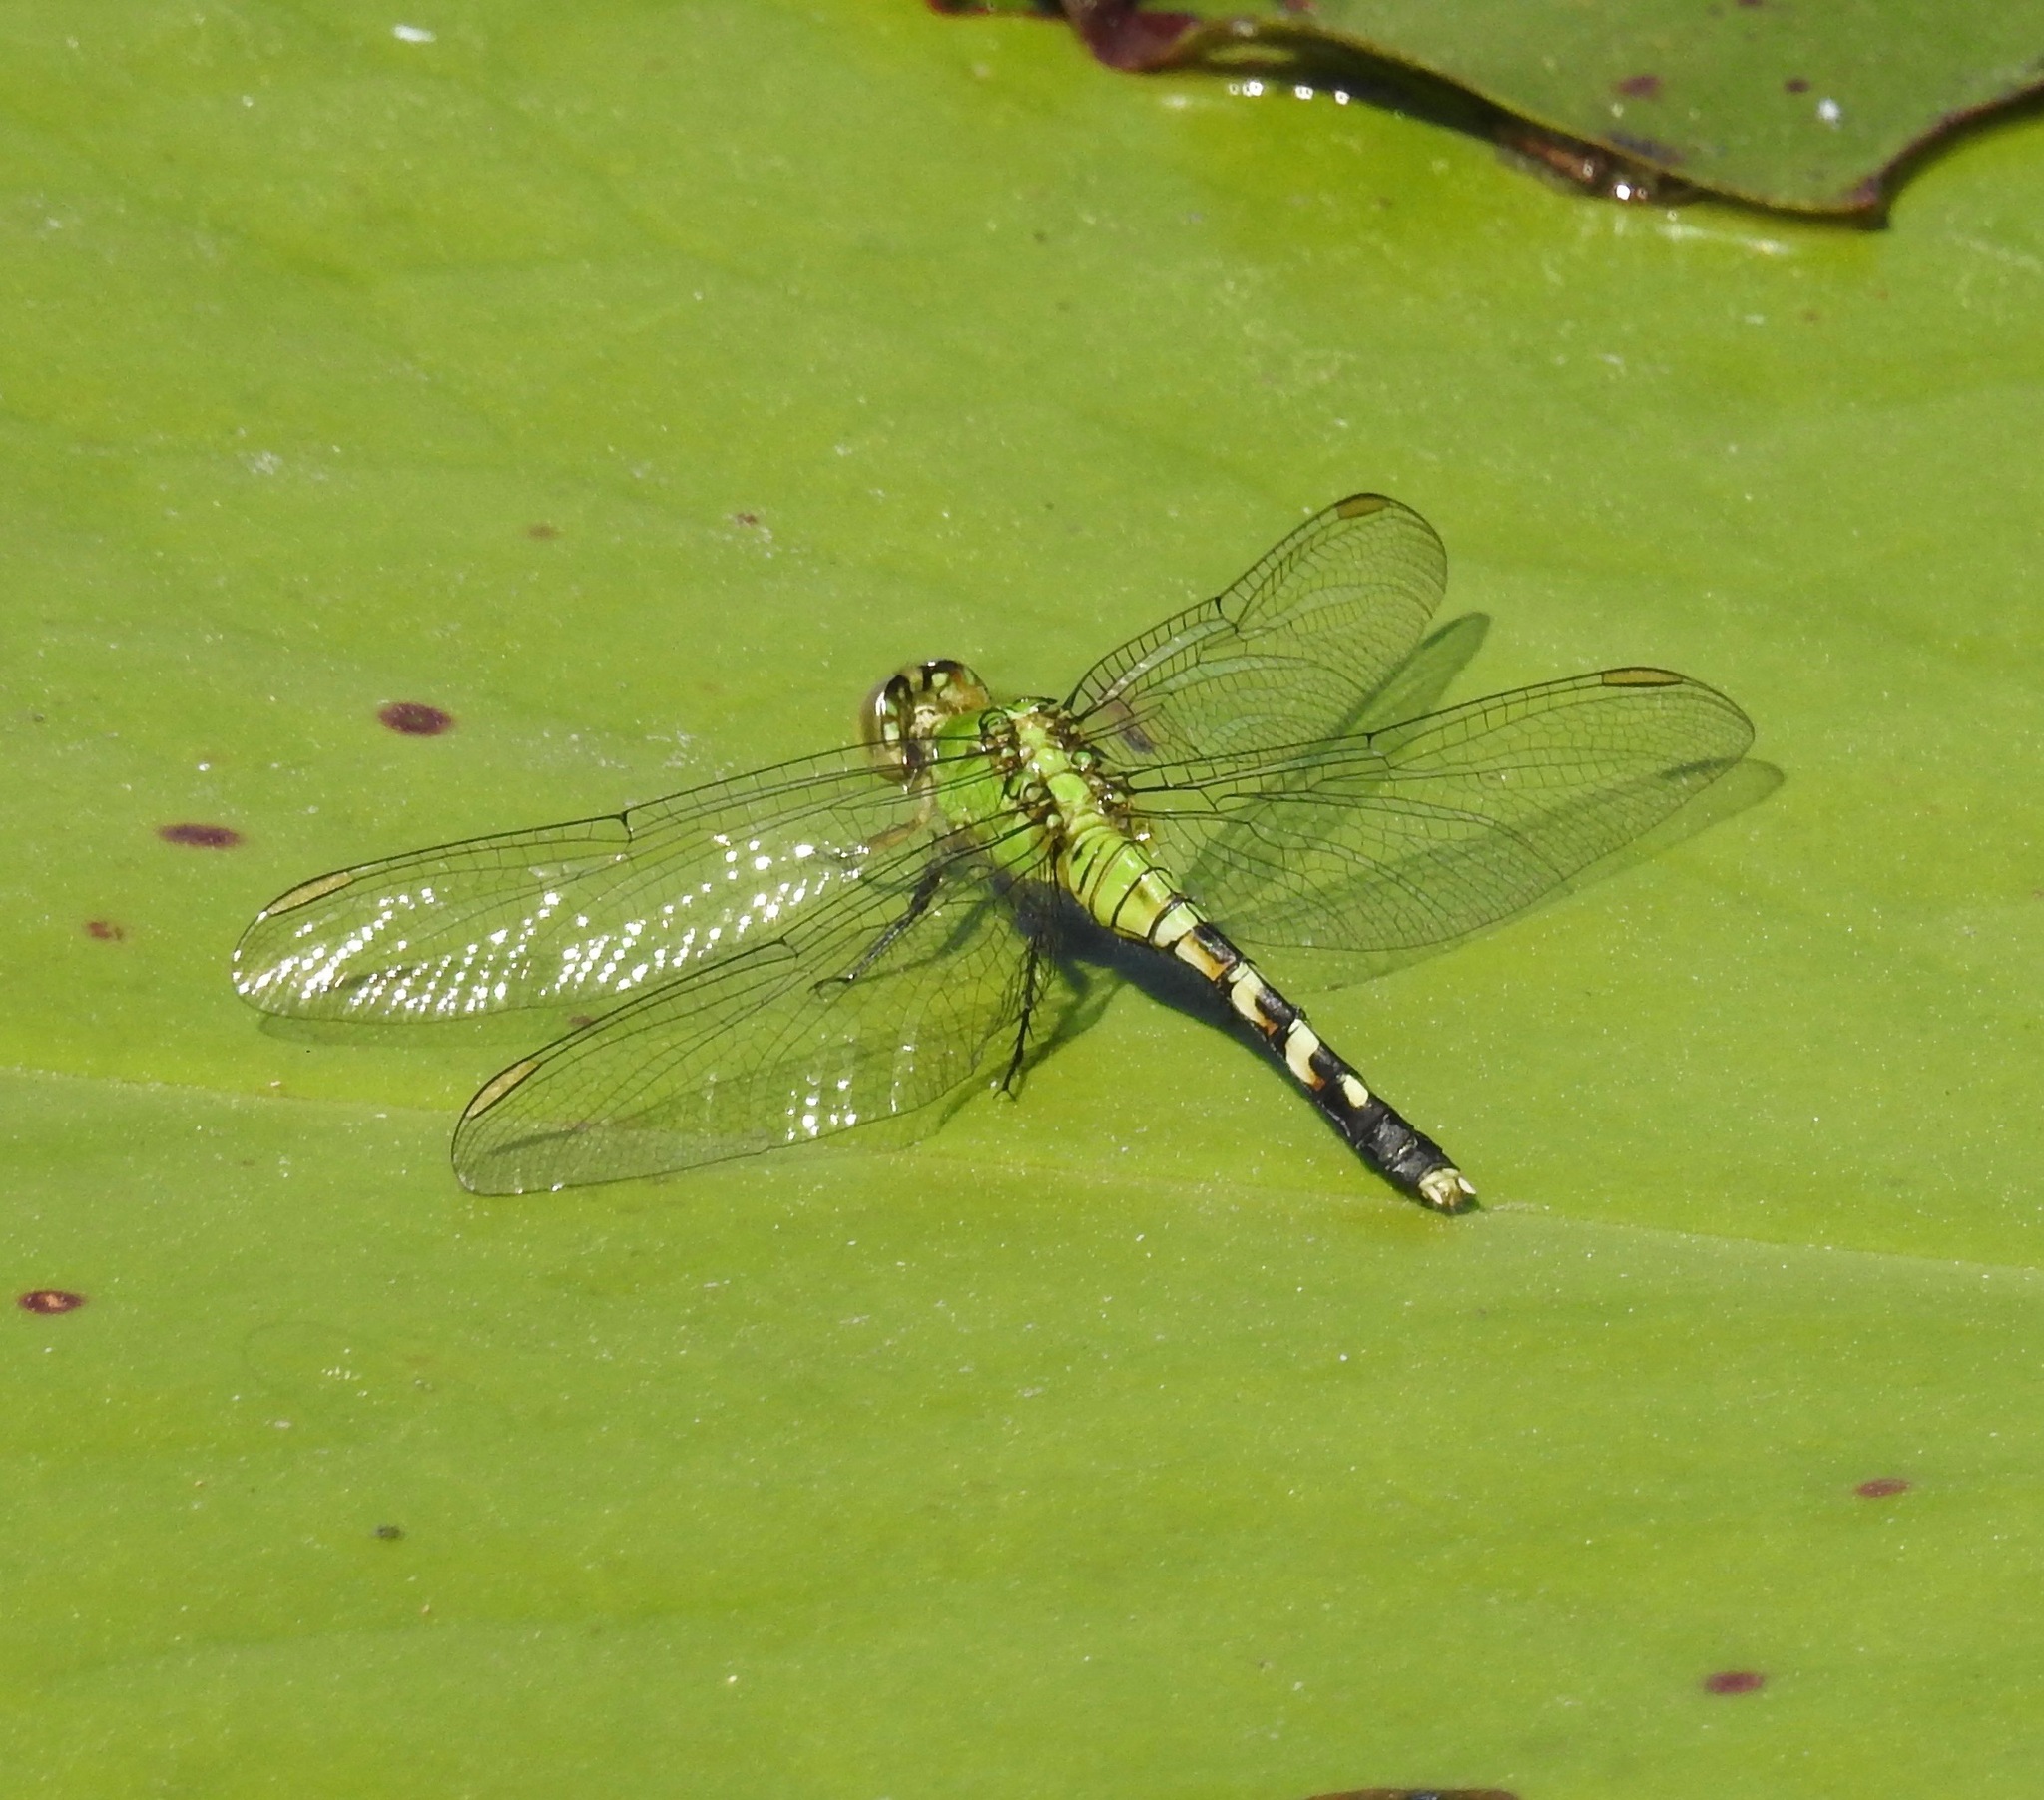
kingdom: Animalia
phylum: Arthropoda
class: Insecta
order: Odonata
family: Libellulidae
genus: Erythemis
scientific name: Erythemis simplicicollis
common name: Eastern pondhawk
